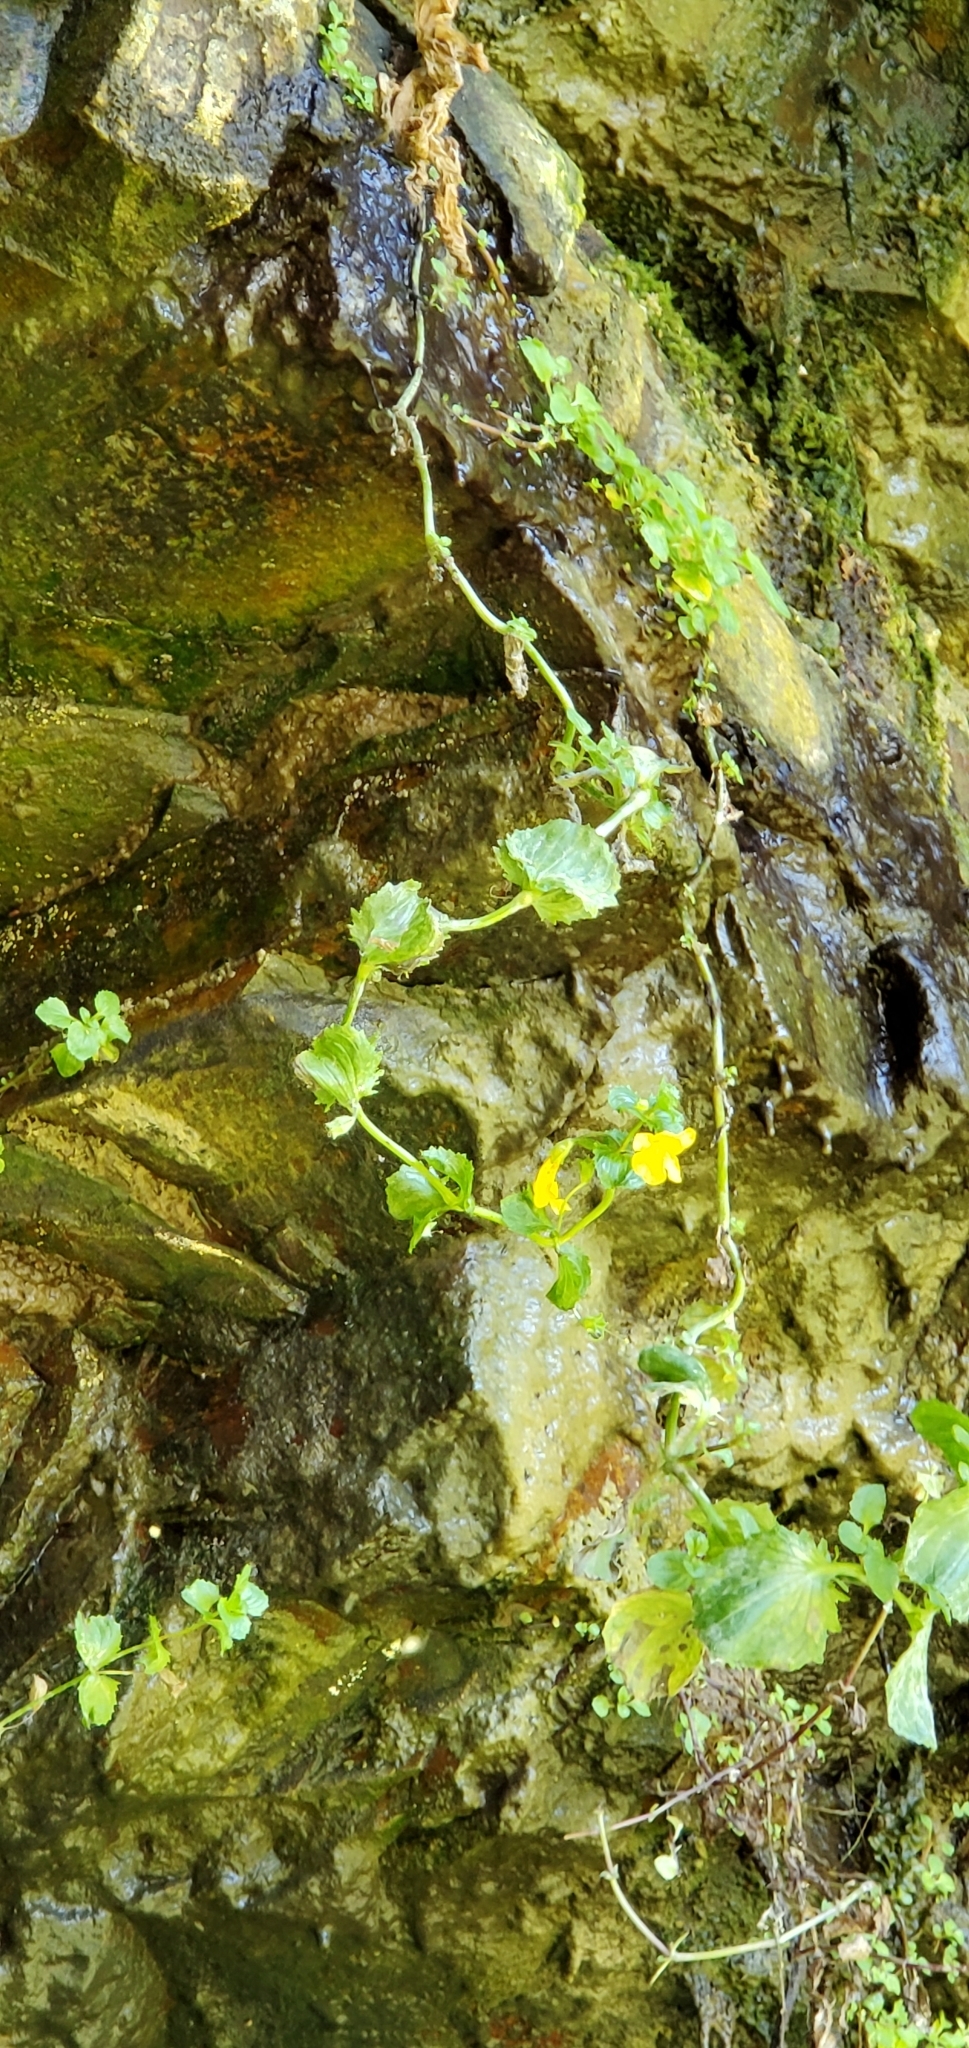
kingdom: Plantae
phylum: Tracheophyta
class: Magnoliopsida
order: Lamiales
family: Phrymaceae
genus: Erythranthe
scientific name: Erythranthe grandis
